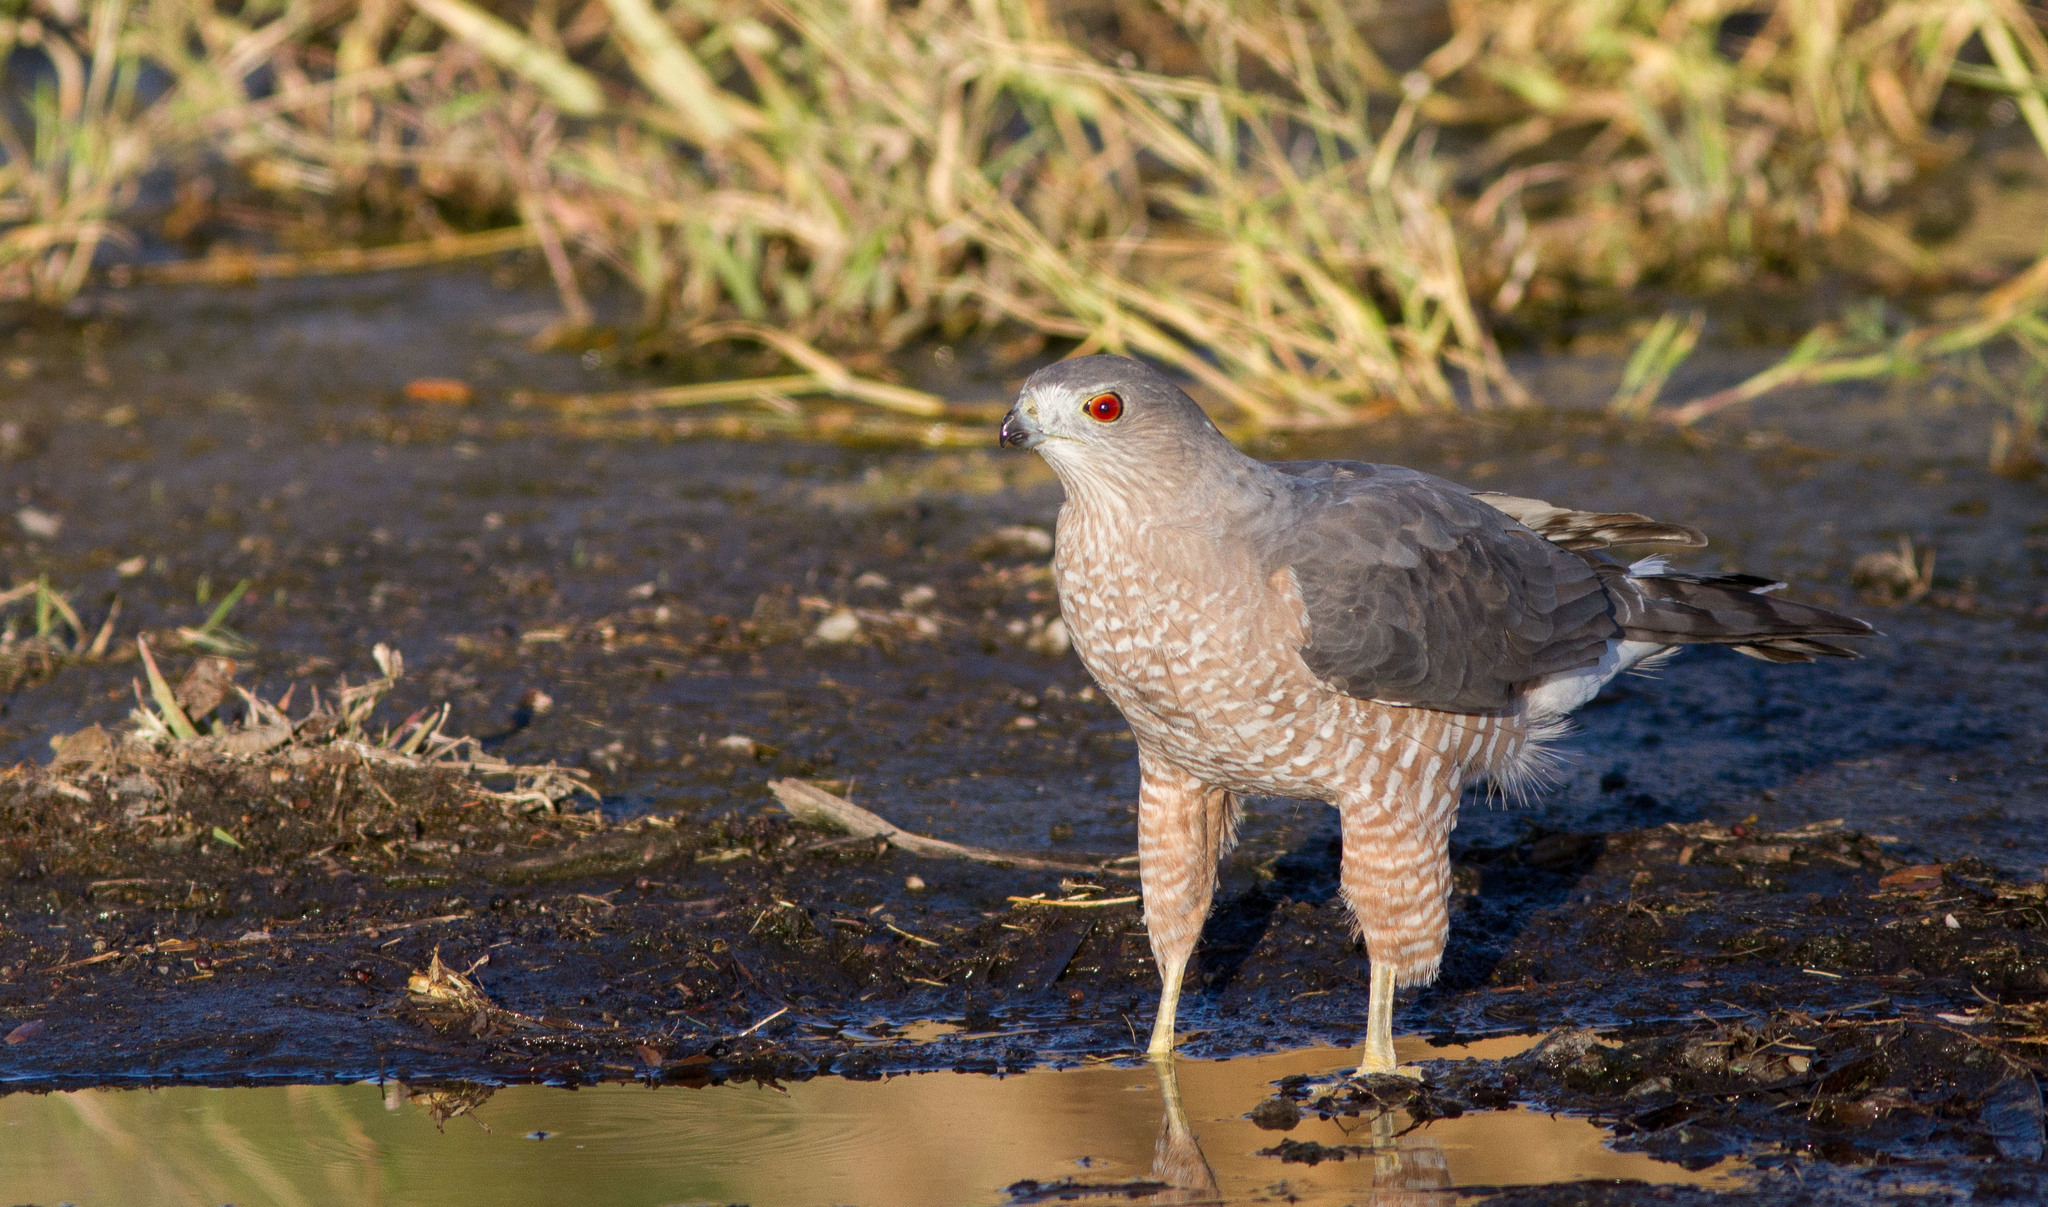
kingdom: Animalia
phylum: Chordata
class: Aves
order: Accipitriformes
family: Accipitridae
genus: Accipiter
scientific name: Accipiter cooperii
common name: Cooper's hawk
